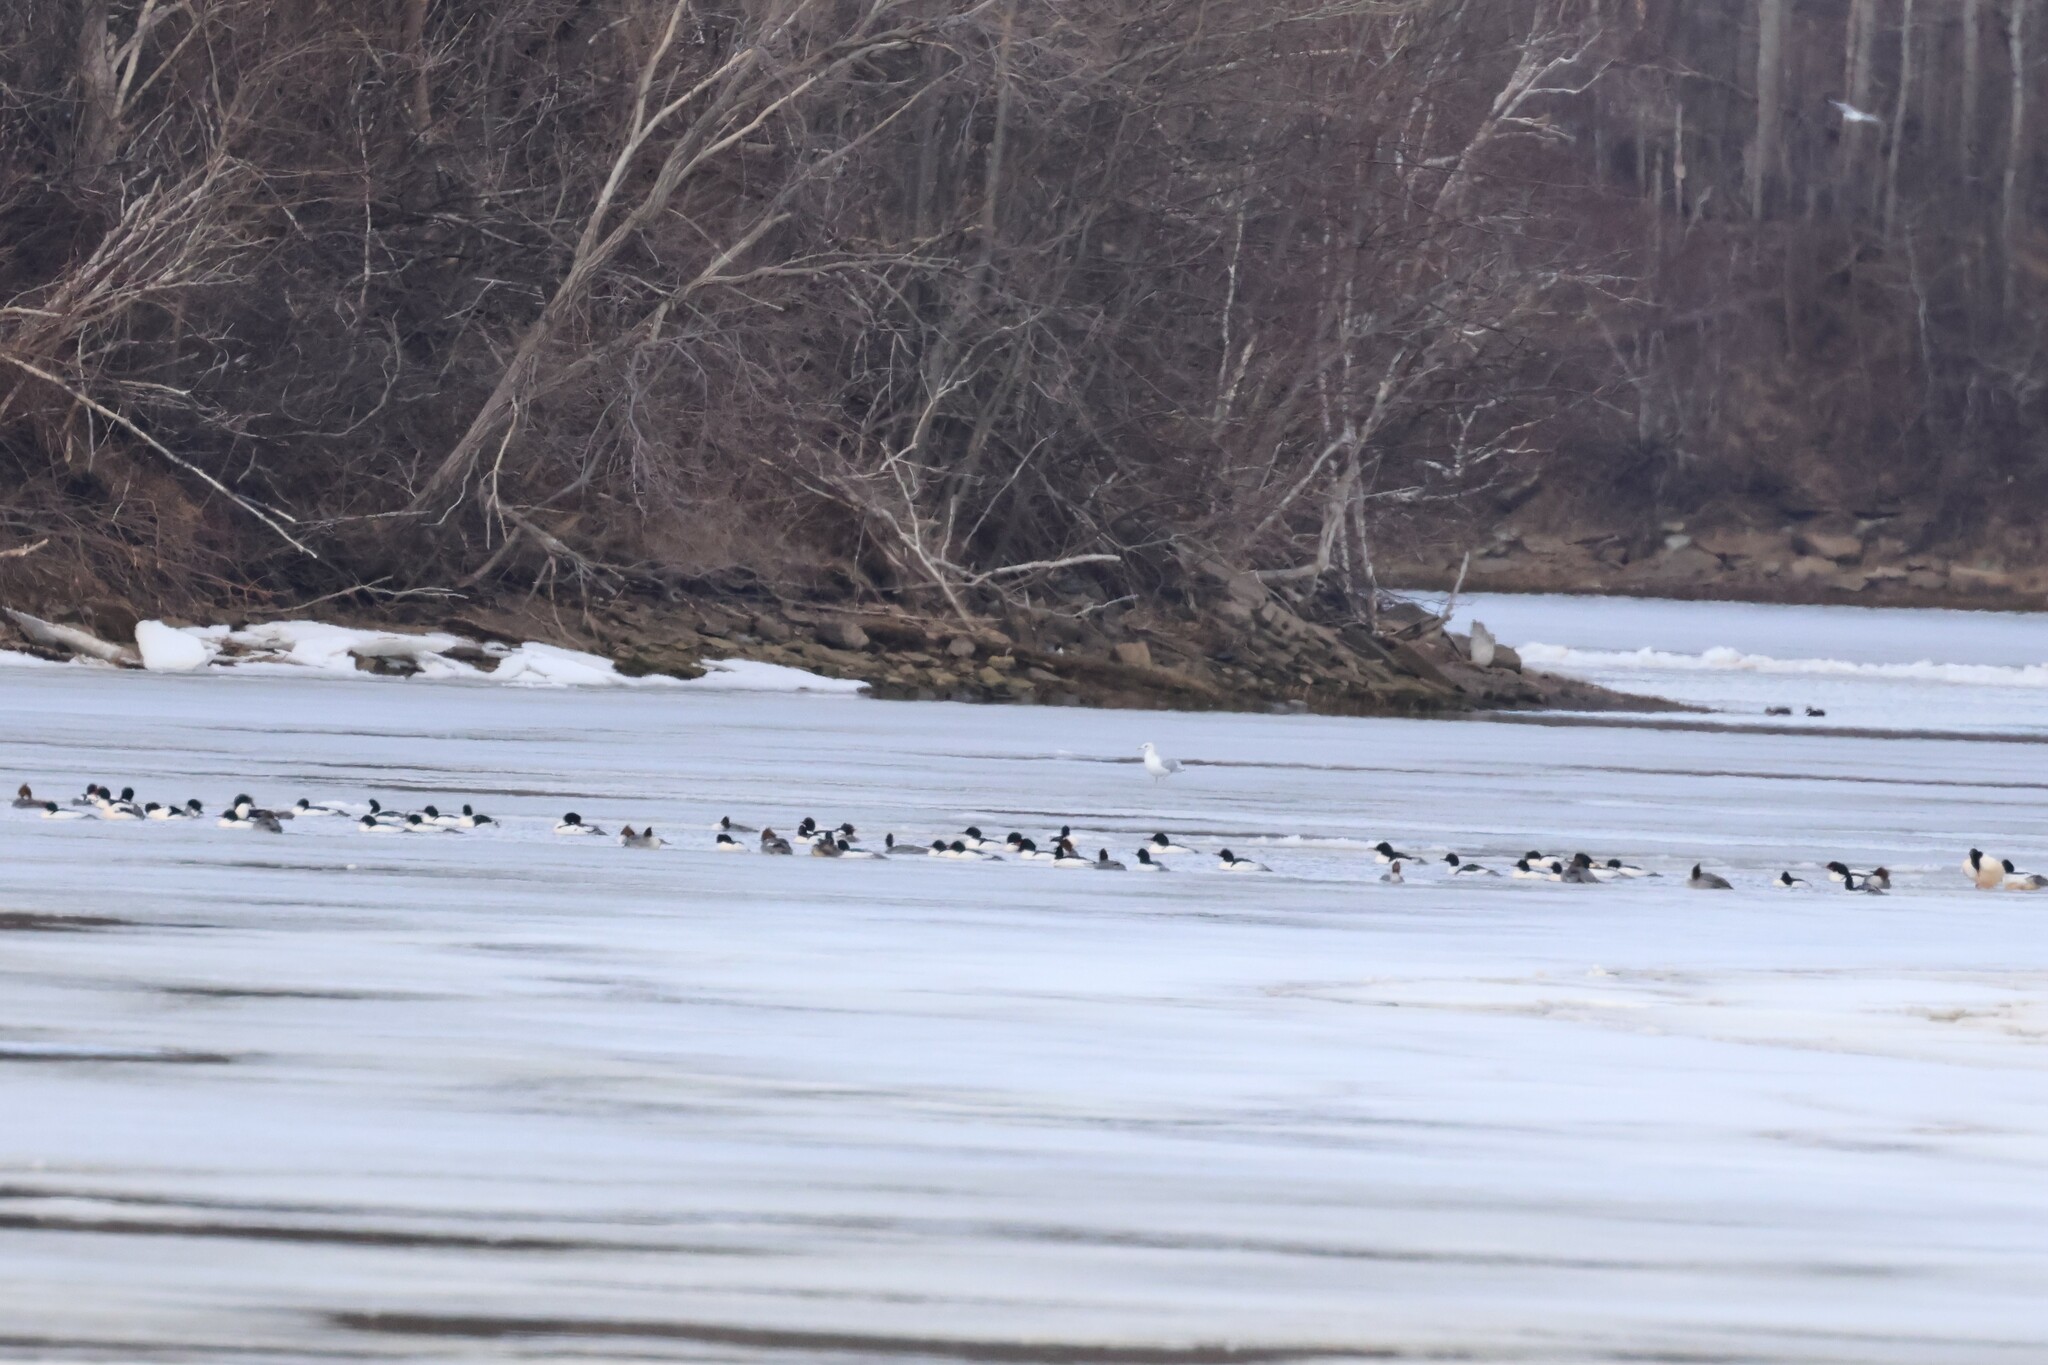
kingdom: Animalia
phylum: Chordata
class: Aves
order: Anseriformes
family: Anatidae
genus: Mergus
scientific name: Mergus merganser
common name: Common merganser
